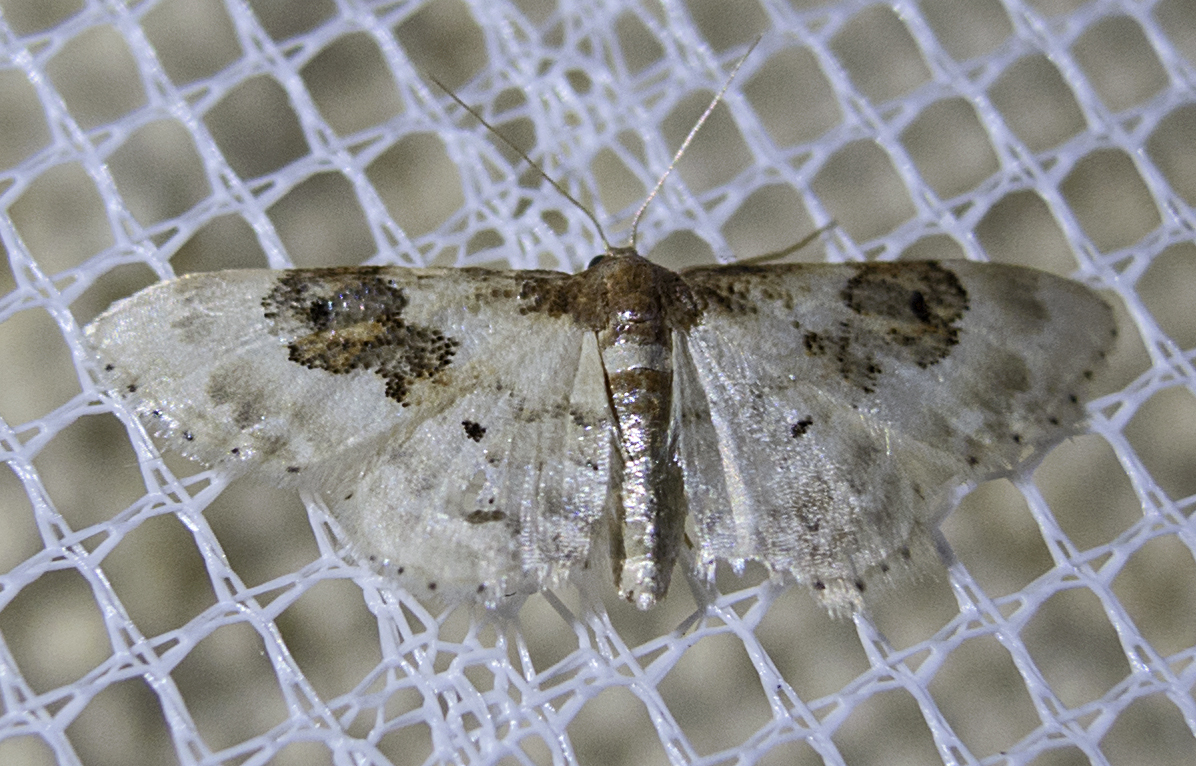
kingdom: Animalia
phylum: Arthropoda
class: Insecta
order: Lepidoptera
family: Geometridae
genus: Idaea
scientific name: Idaea rusticata
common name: Least carpet
